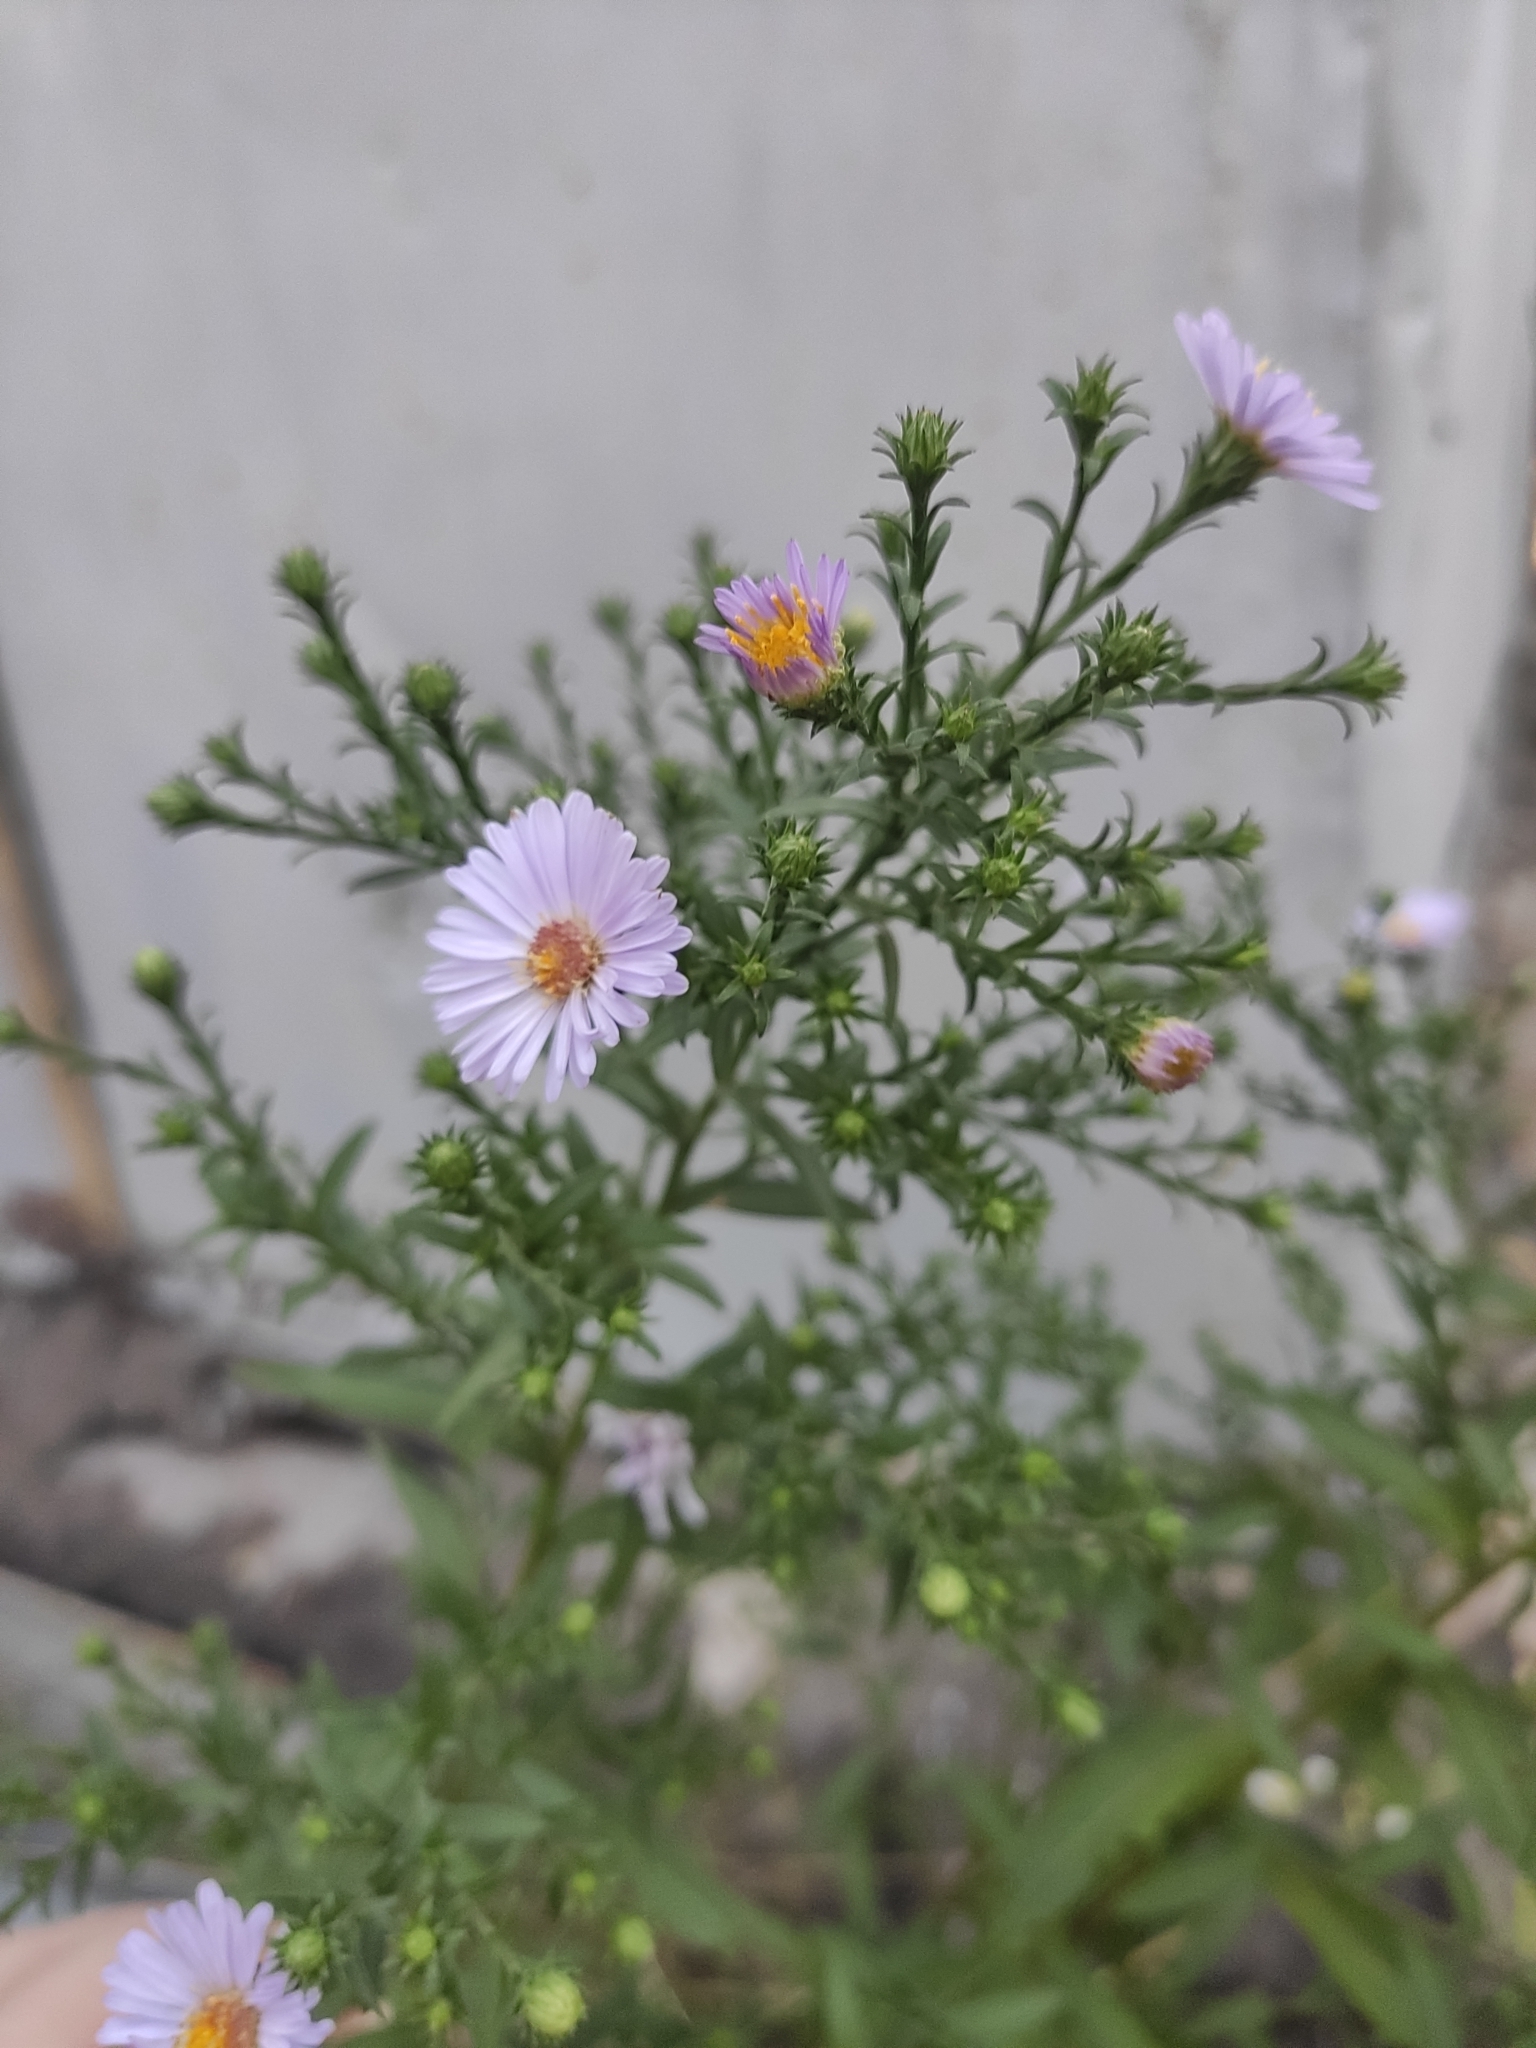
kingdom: Plantae
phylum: Tracheophyta
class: Magnoliopsida
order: Asterales
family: Asteraceae
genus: Symphyotrichum
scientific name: Symphyotrichum novi-belgii
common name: Michaelmas daisy
